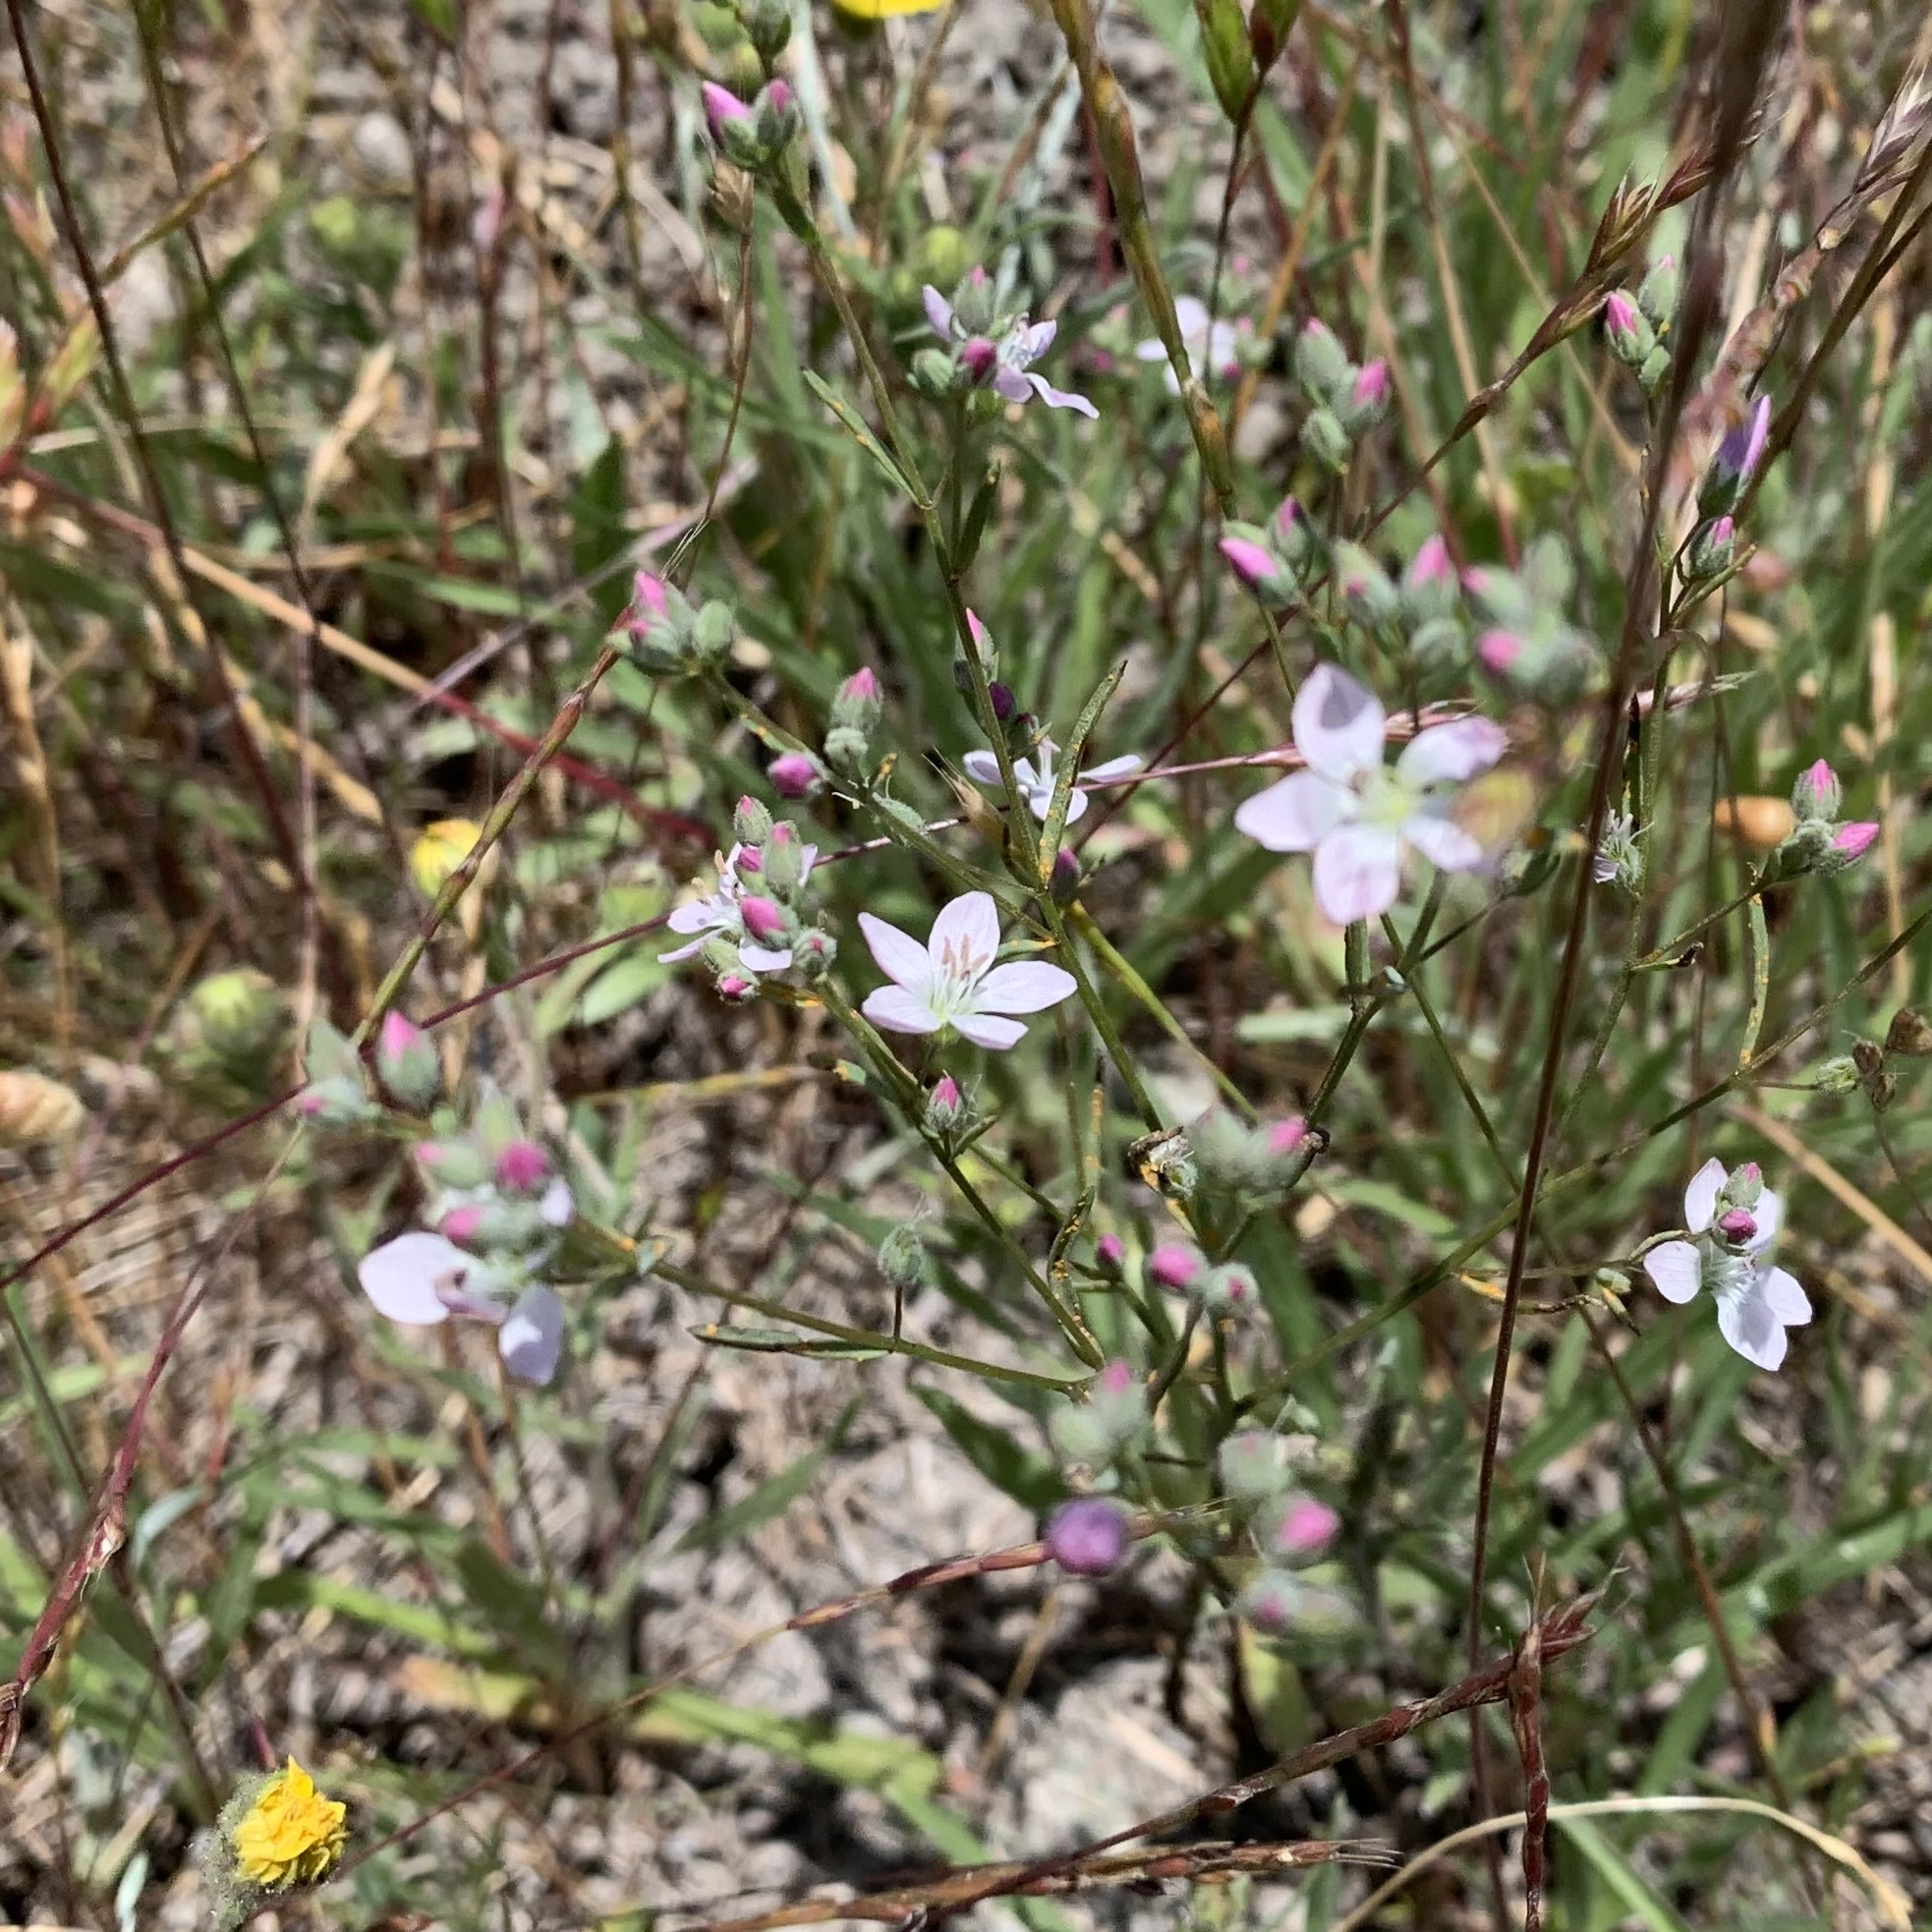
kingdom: Plantae
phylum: Tracheophyta
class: Magnoliopsida
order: Malpighiales
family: Linaceae
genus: Hesperolinon
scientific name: Hesperolinon congestum
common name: Marin dwarf-flax
